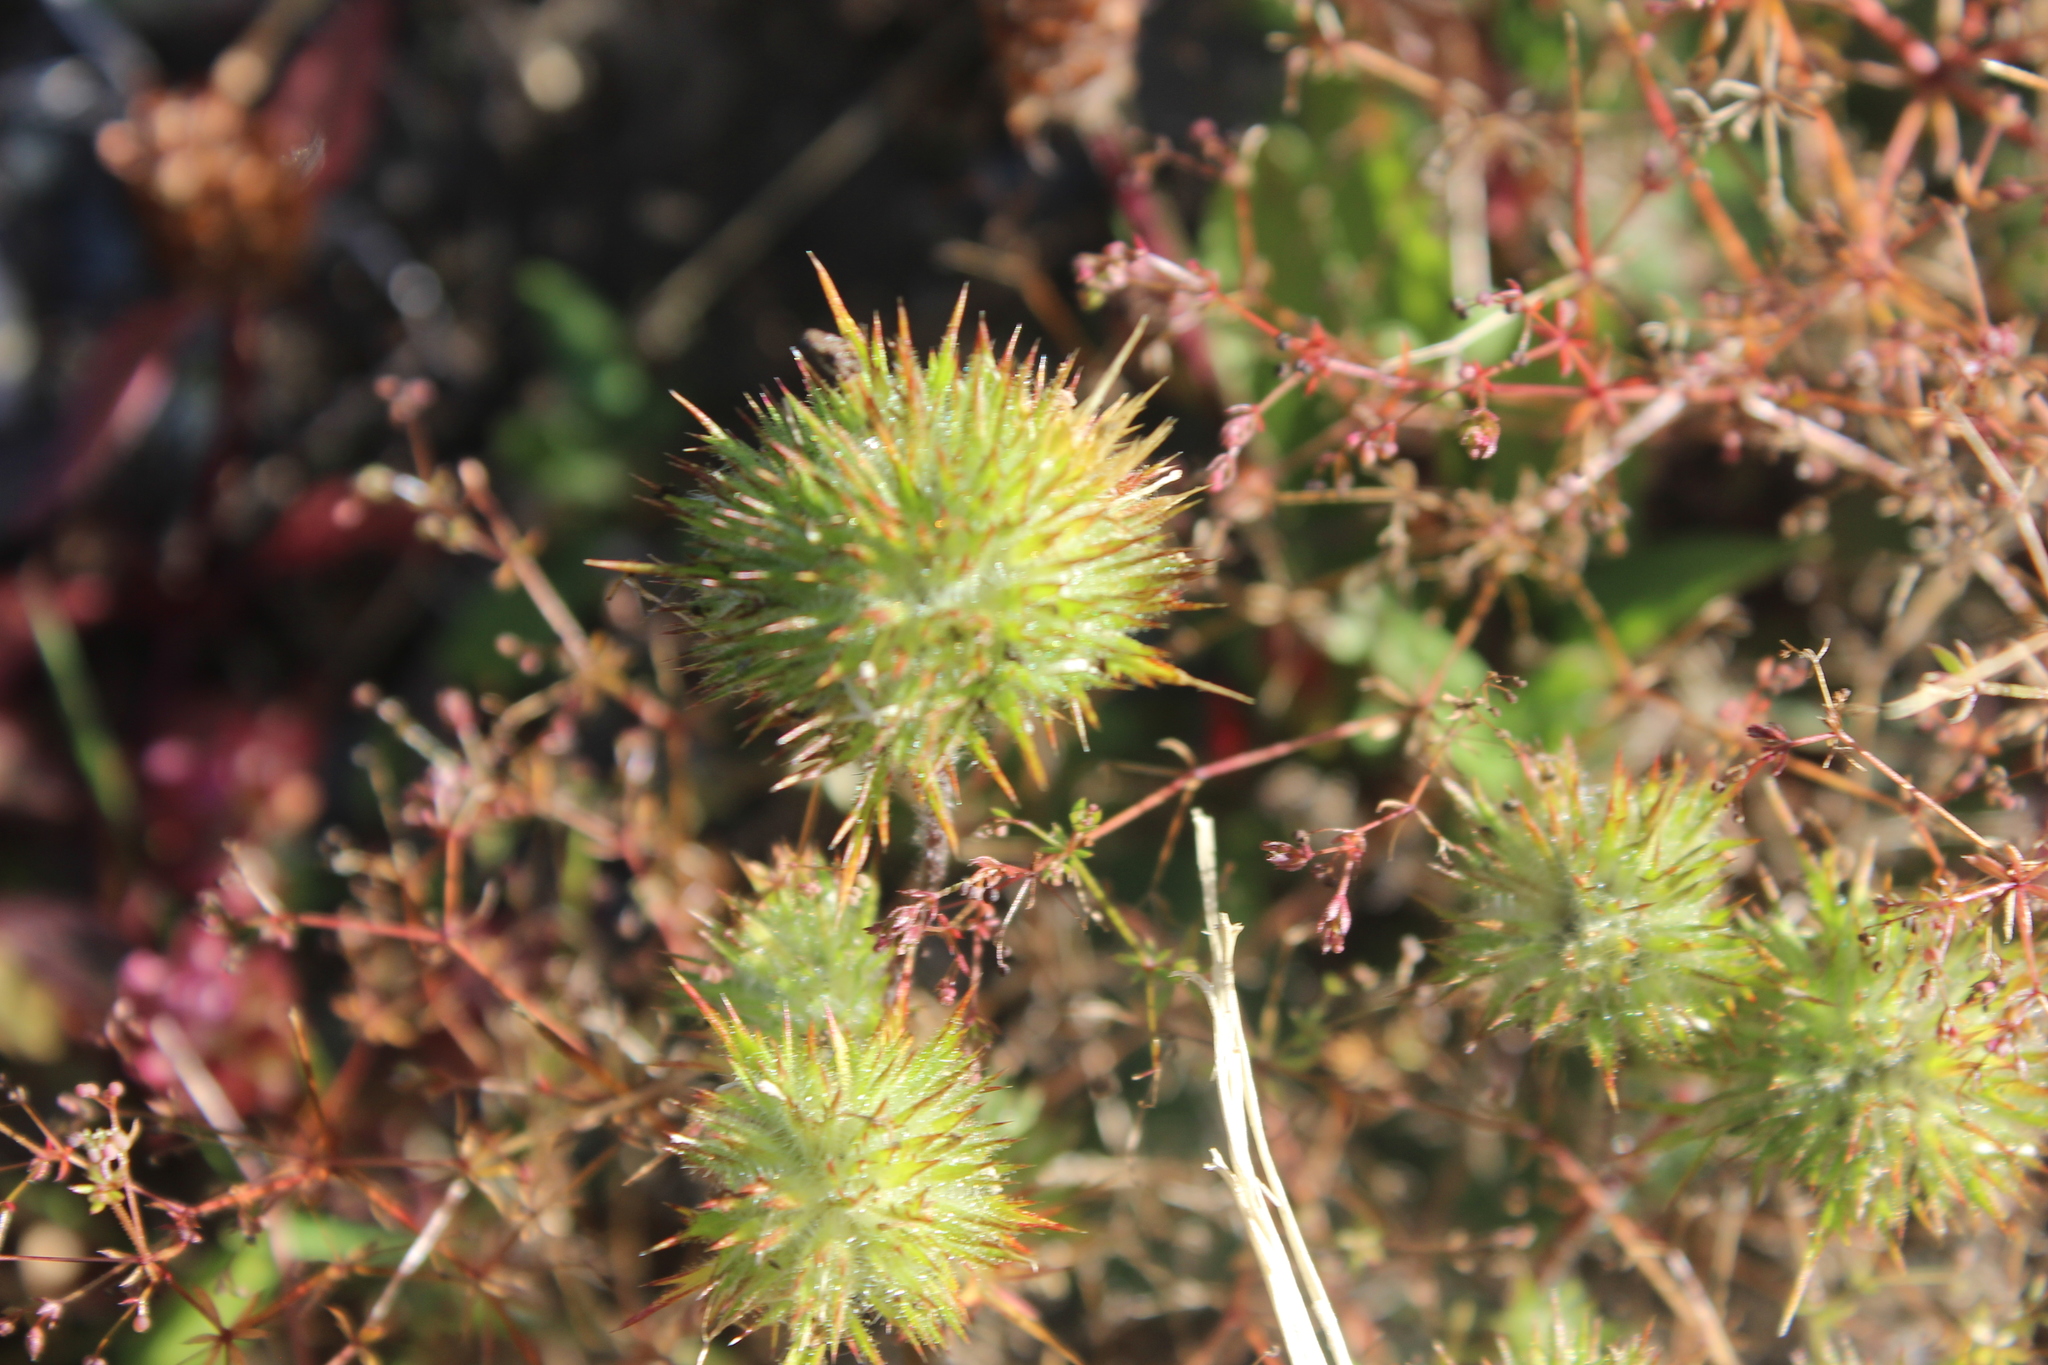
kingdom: Plantae
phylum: Tracheophyta
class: Magnoliopsida
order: Ericales
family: Polemoniaceae
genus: Navarretia
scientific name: Navarretia squarrosa
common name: Skunkweed
